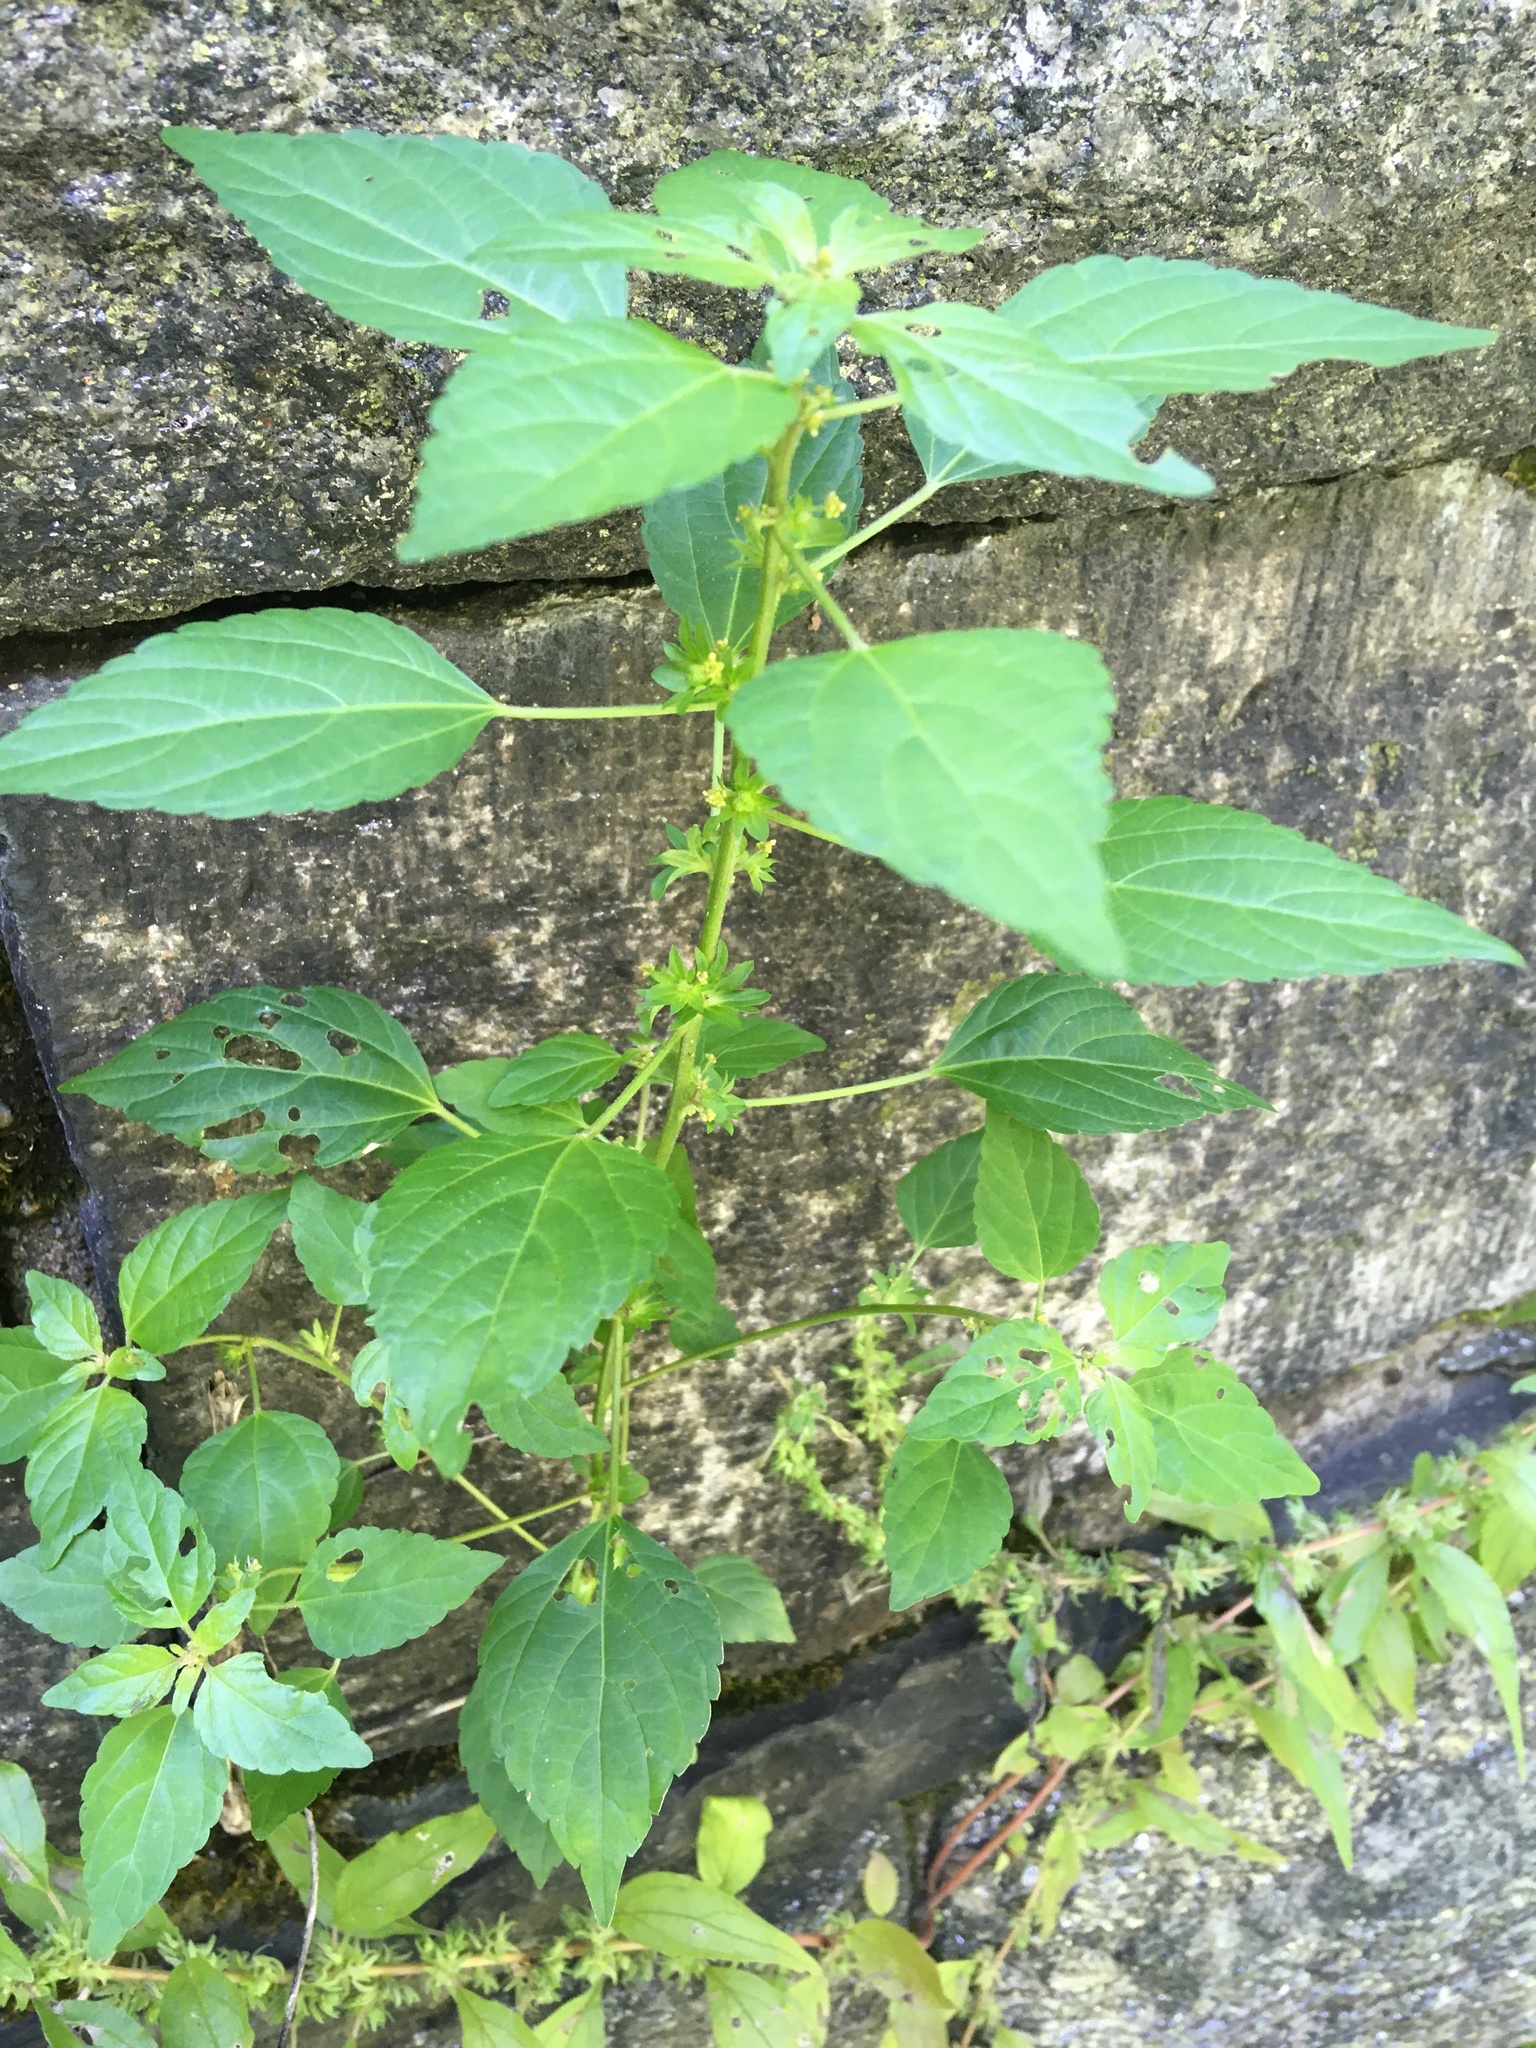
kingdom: Plantae
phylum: Tracheophyta
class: Magnoliopsida
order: Malpighiales
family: Euphorbiaceae
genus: Acalypha
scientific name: Acalypha rhomboidea
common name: Rhombic copperleaf
